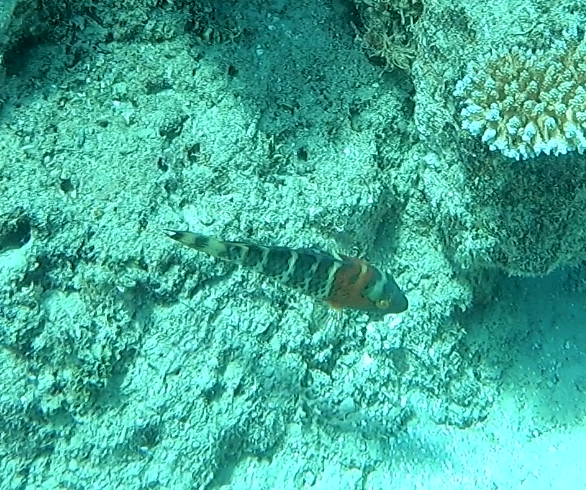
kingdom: Animalia
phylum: Chordata
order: Perciformes
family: Labridae
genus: Cheilinus
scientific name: Cheilinus fasciatus
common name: Red-breasted wrasse
